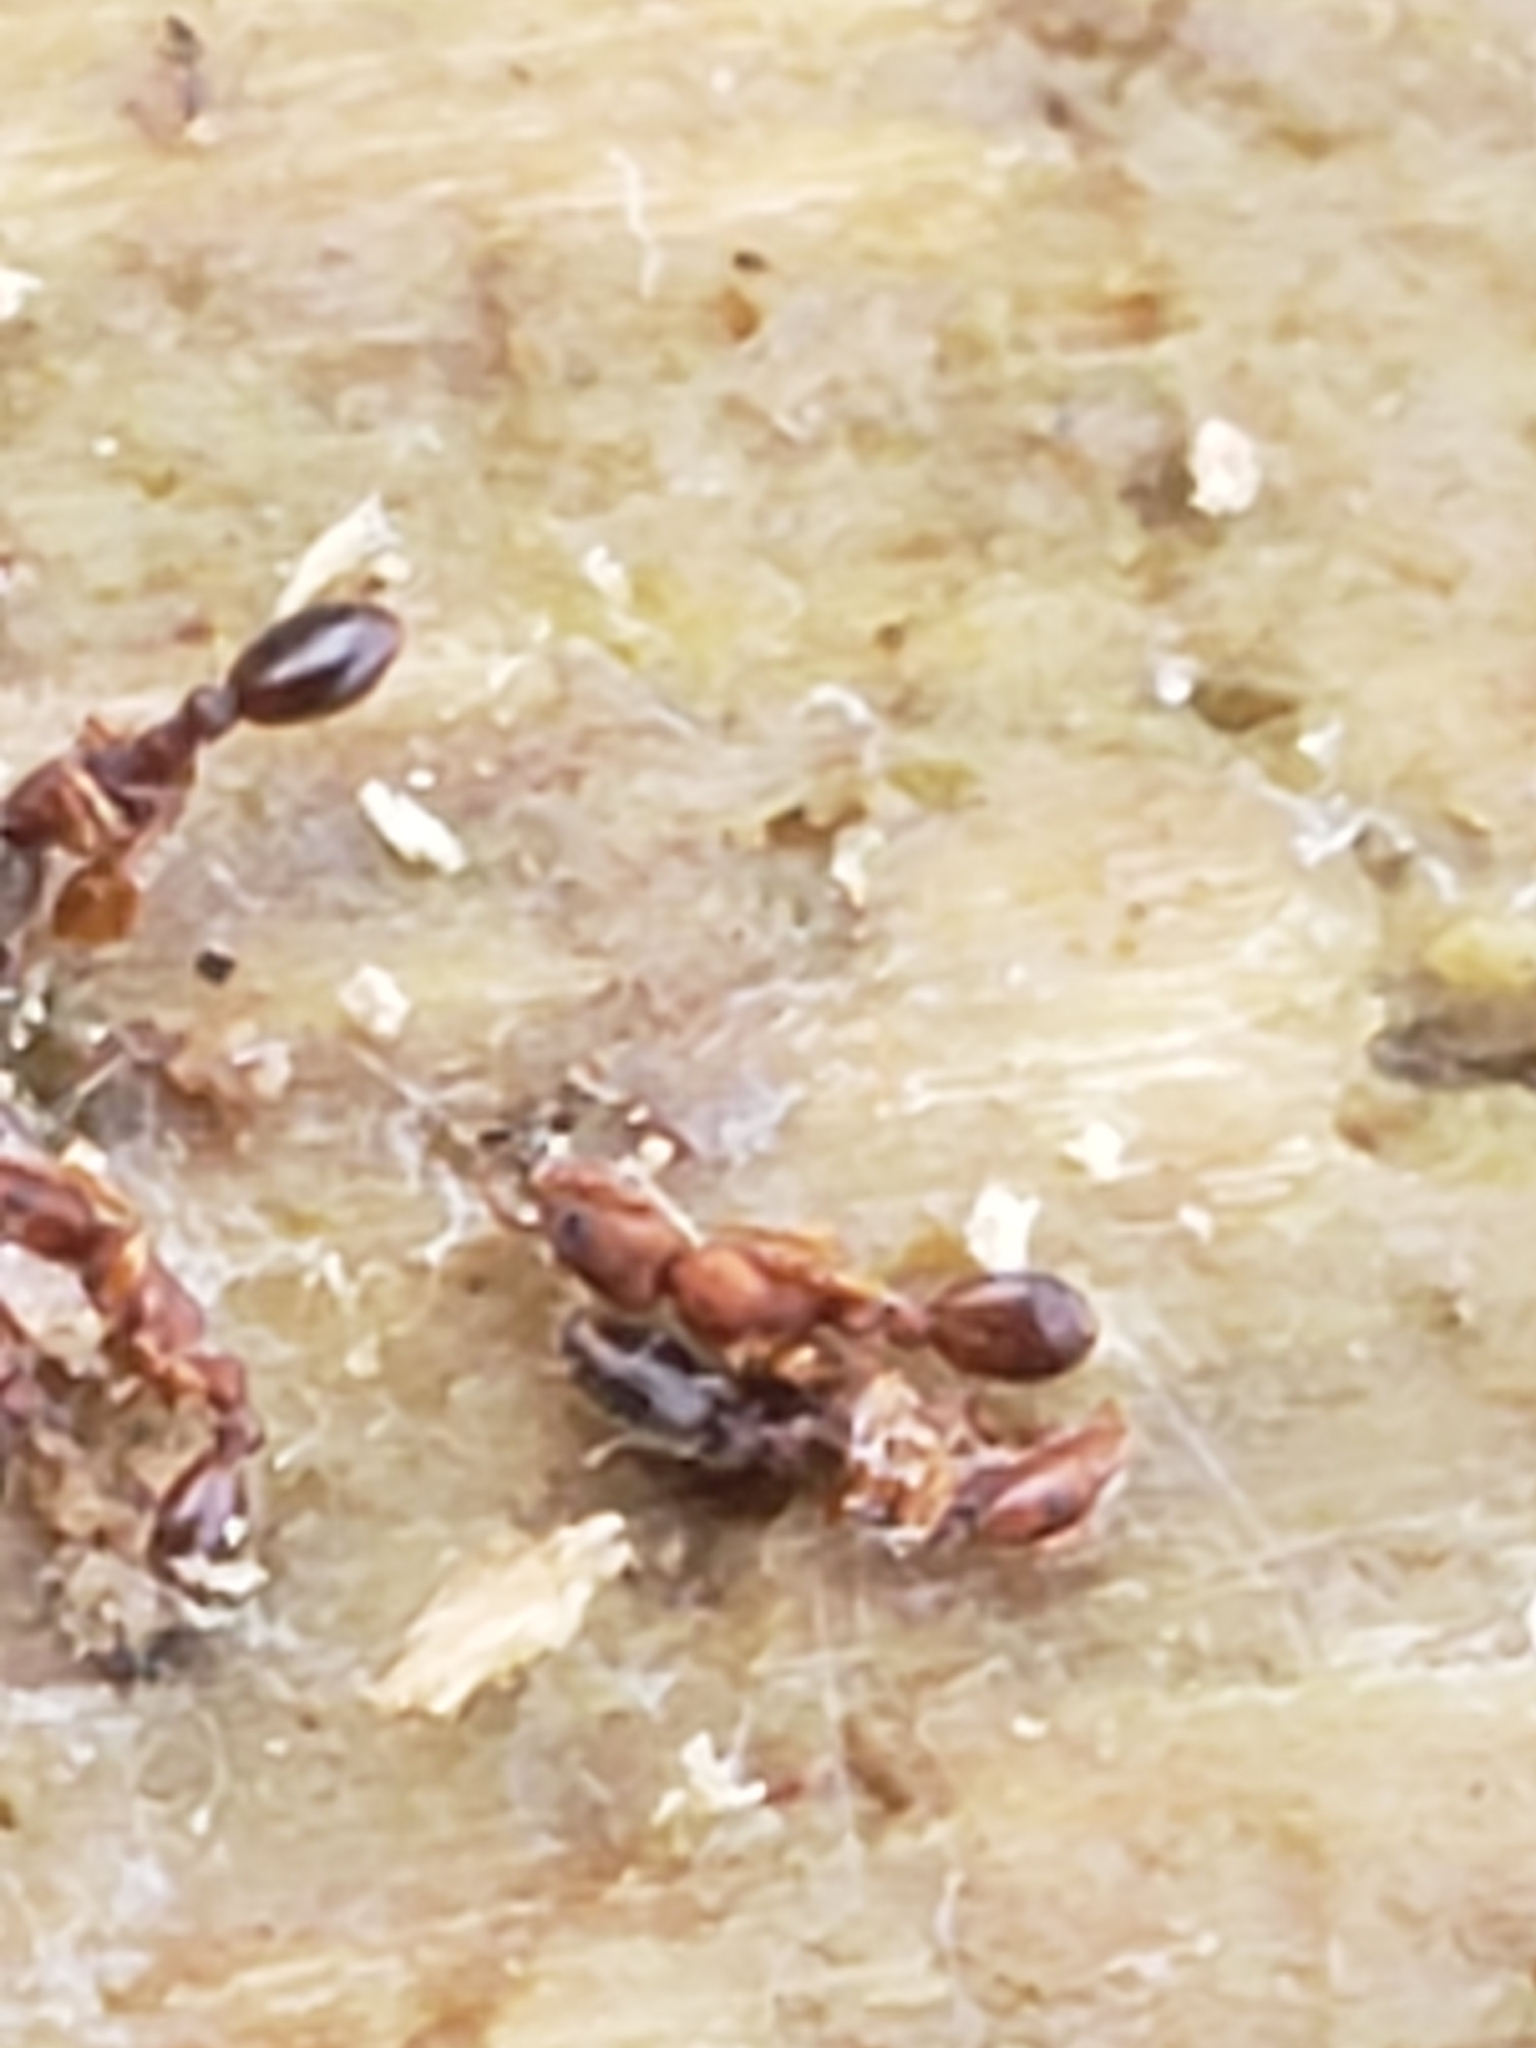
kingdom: Animalia
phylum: Arthropoda
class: Insecta
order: Hymenoptera
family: Formicidae
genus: Vollenhovia
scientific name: Vollenhovia emeryi
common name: Ant
